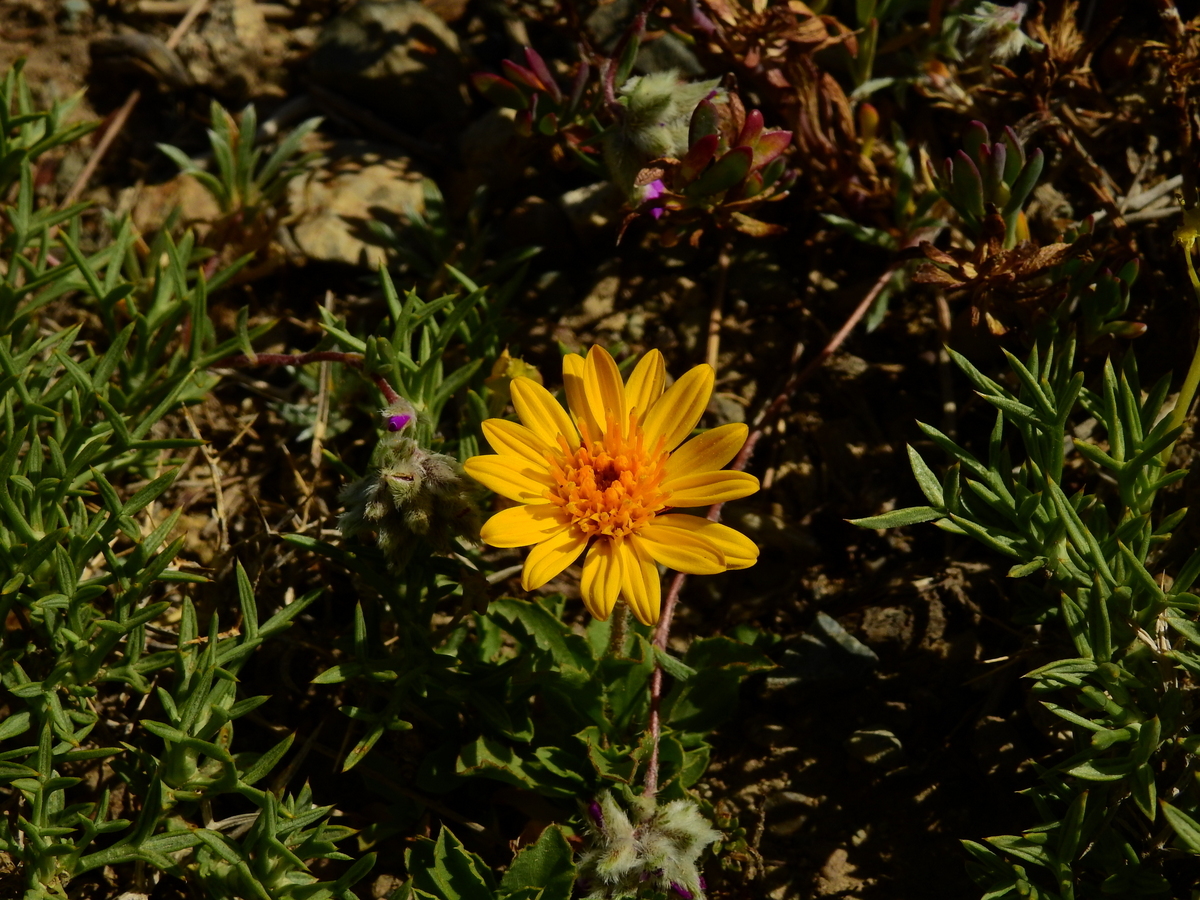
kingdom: Plantae
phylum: Tracheophyta
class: Magnoliopsida
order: Asterales
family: Asteraceae
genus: Haplopappus
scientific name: Haplopappus grindelioides
